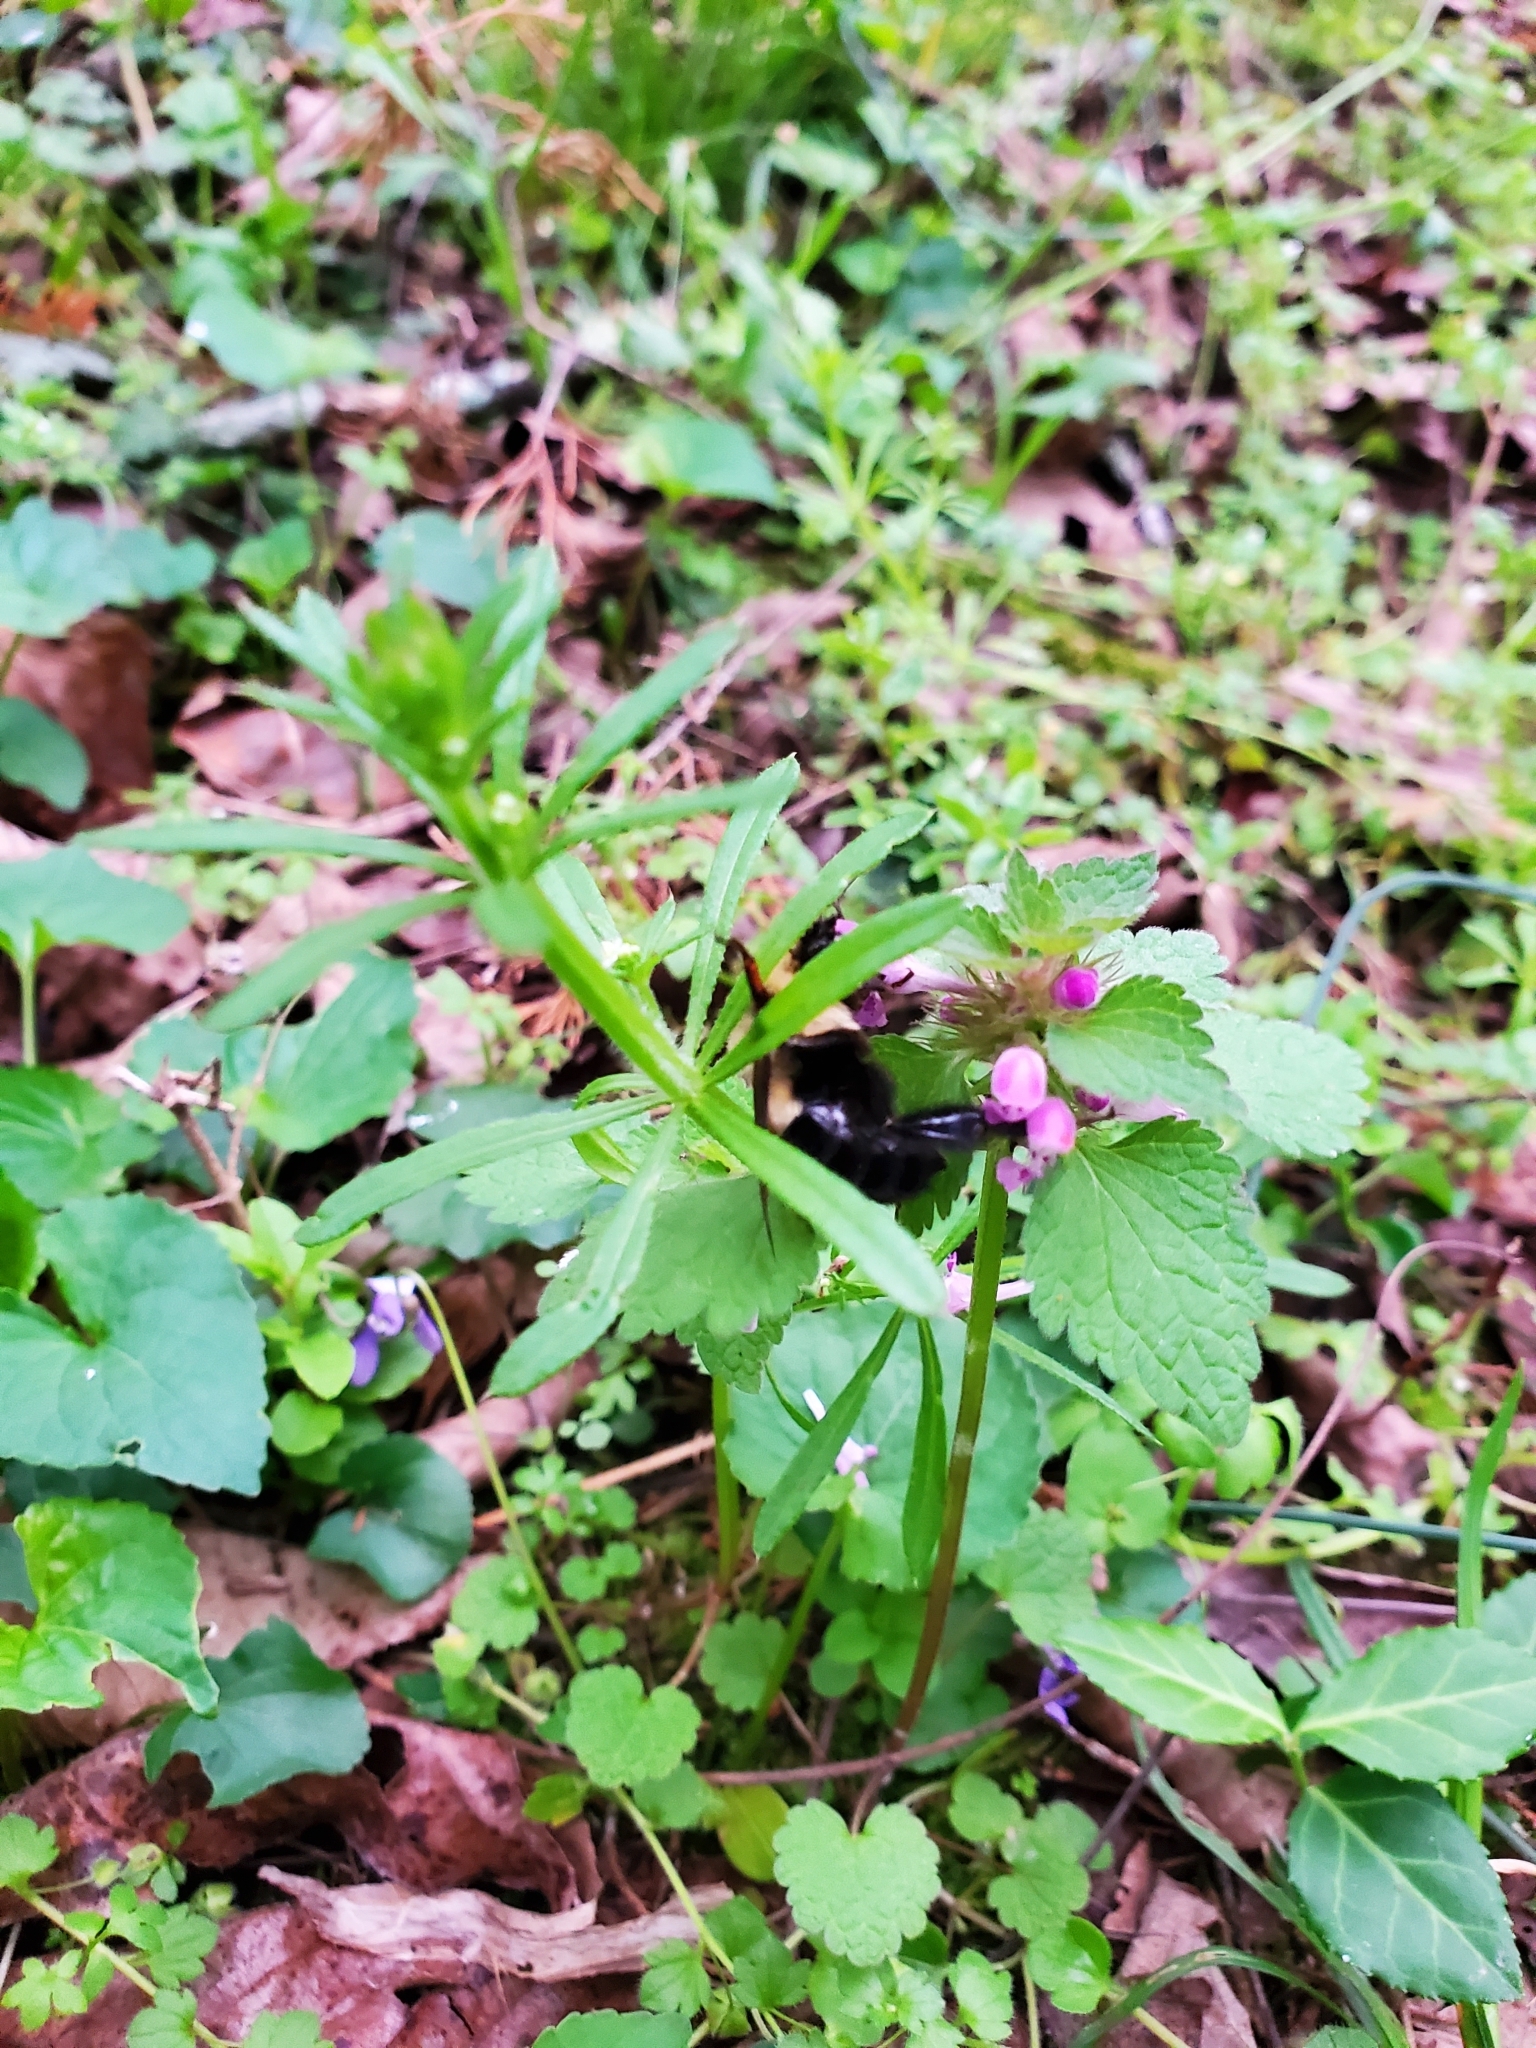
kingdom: Animalia
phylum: Arthropoda
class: Insecta
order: Hymenoptera
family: Apidae
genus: Bombus
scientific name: Bombus impatiens
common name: Common eastern bumble bee
